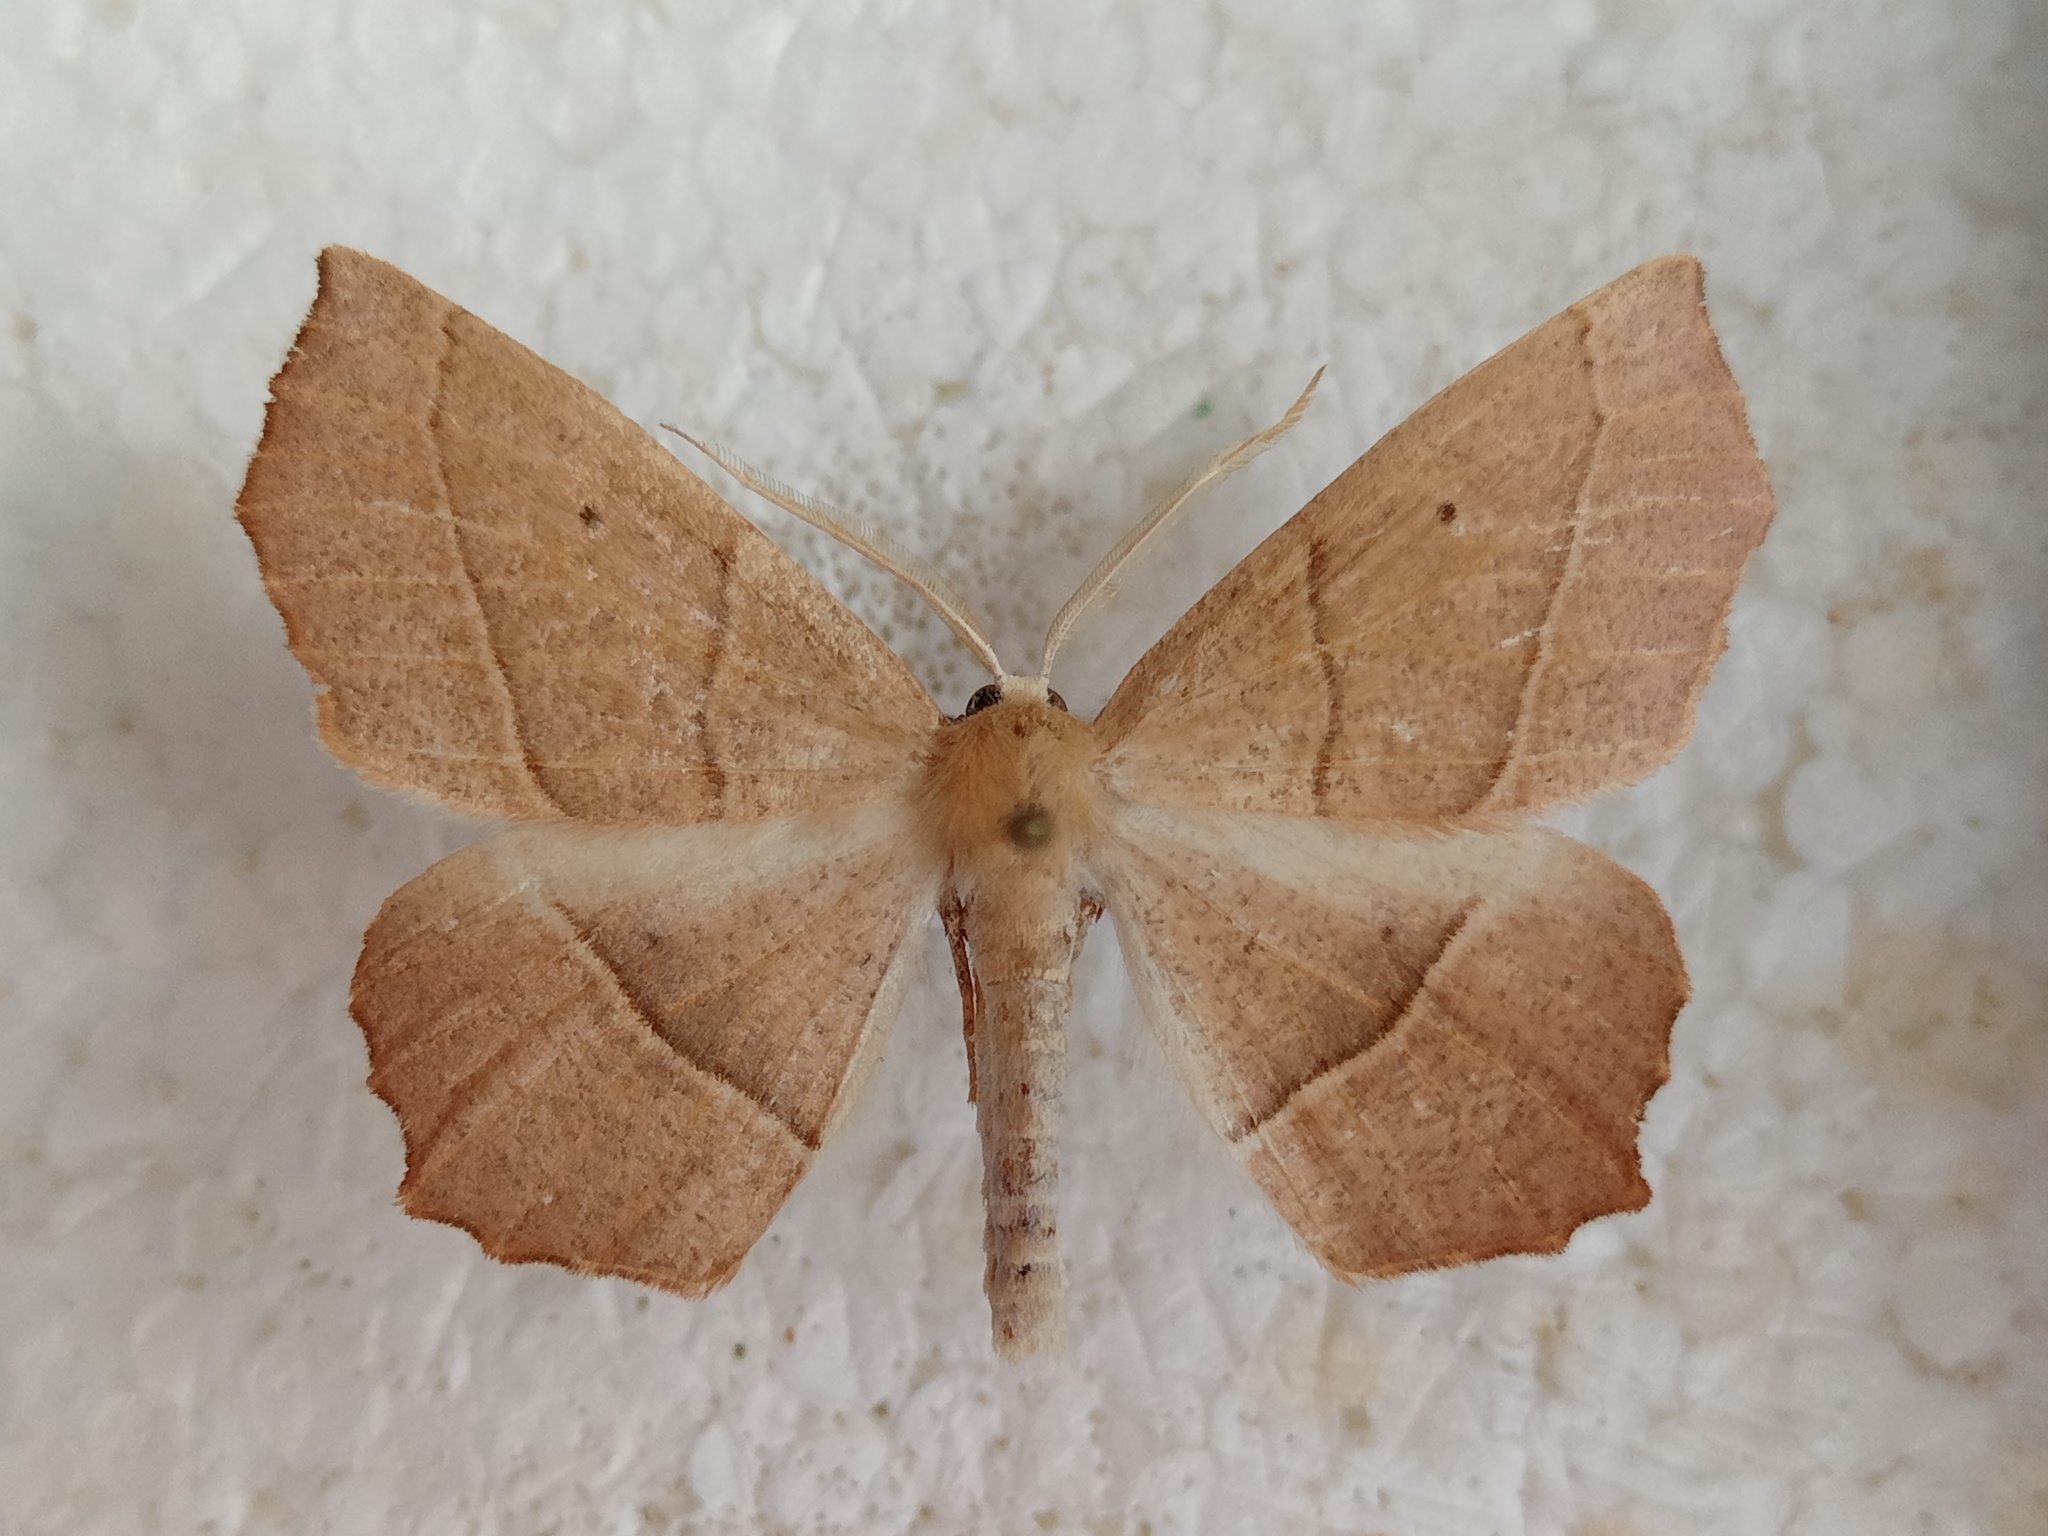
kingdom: Animalia
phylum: Arthropoda
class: Insecta
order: Lepidoptera
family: Geometridae
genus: Gerinia
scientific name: Gerinia honoraria
